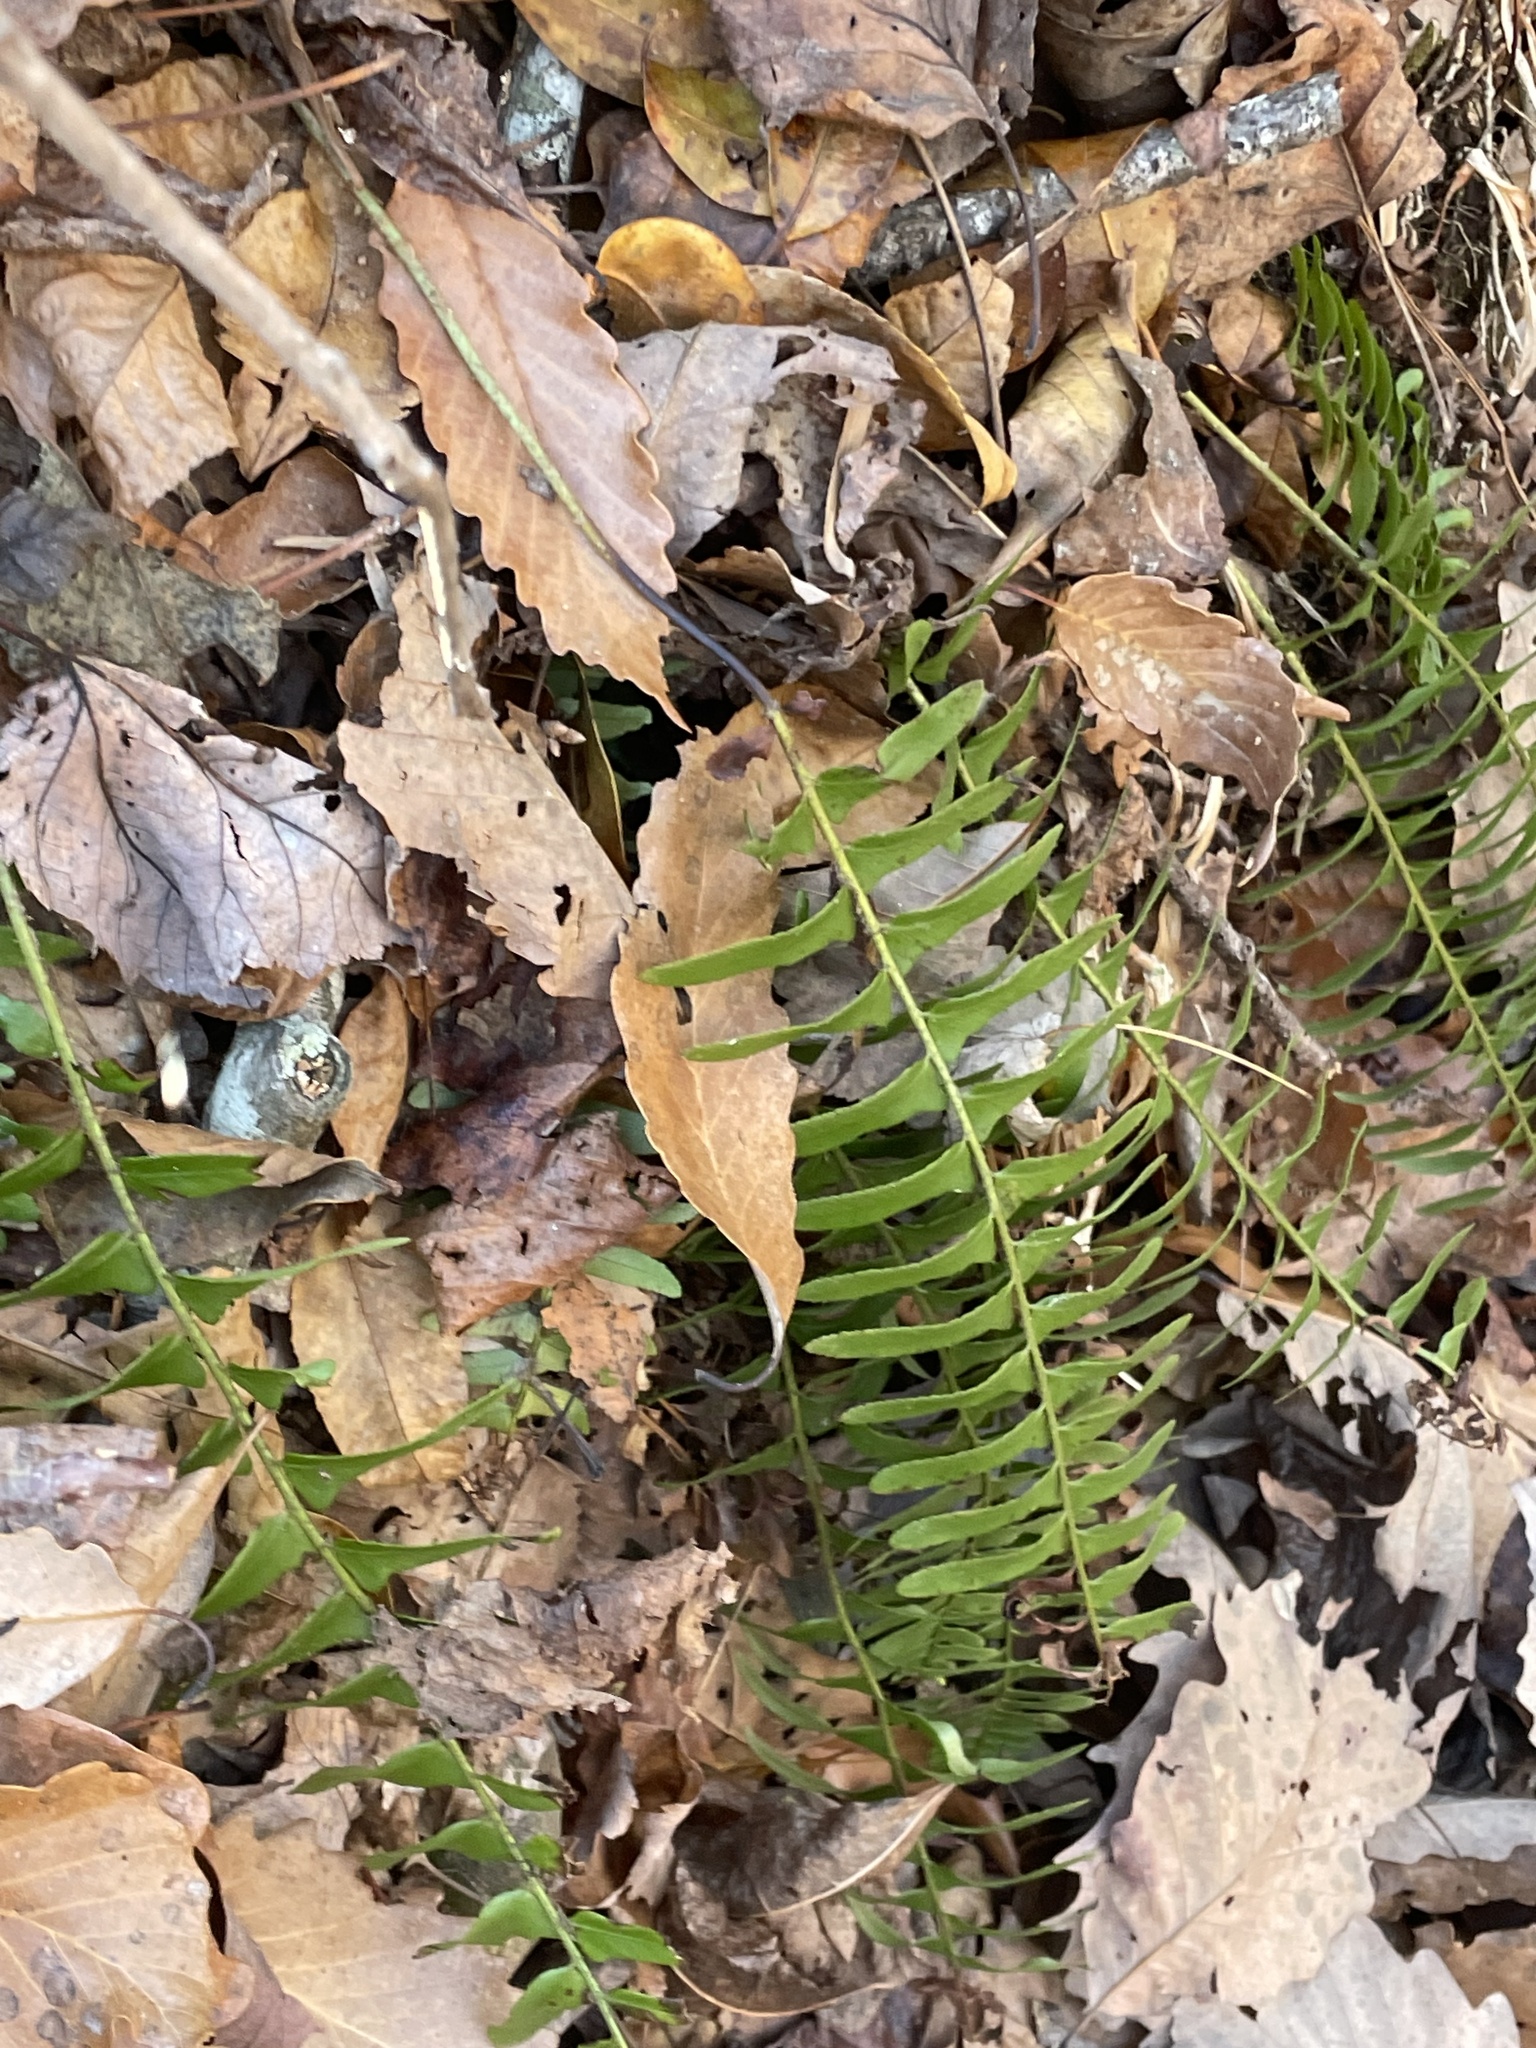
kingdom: Plantae
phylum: Tracheophyta
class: Polypodiopsida
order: Polypodiales
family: Dryopteridaceae
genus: Polystichum
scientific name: Polystichum acrostichoides
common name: Christmas fern
